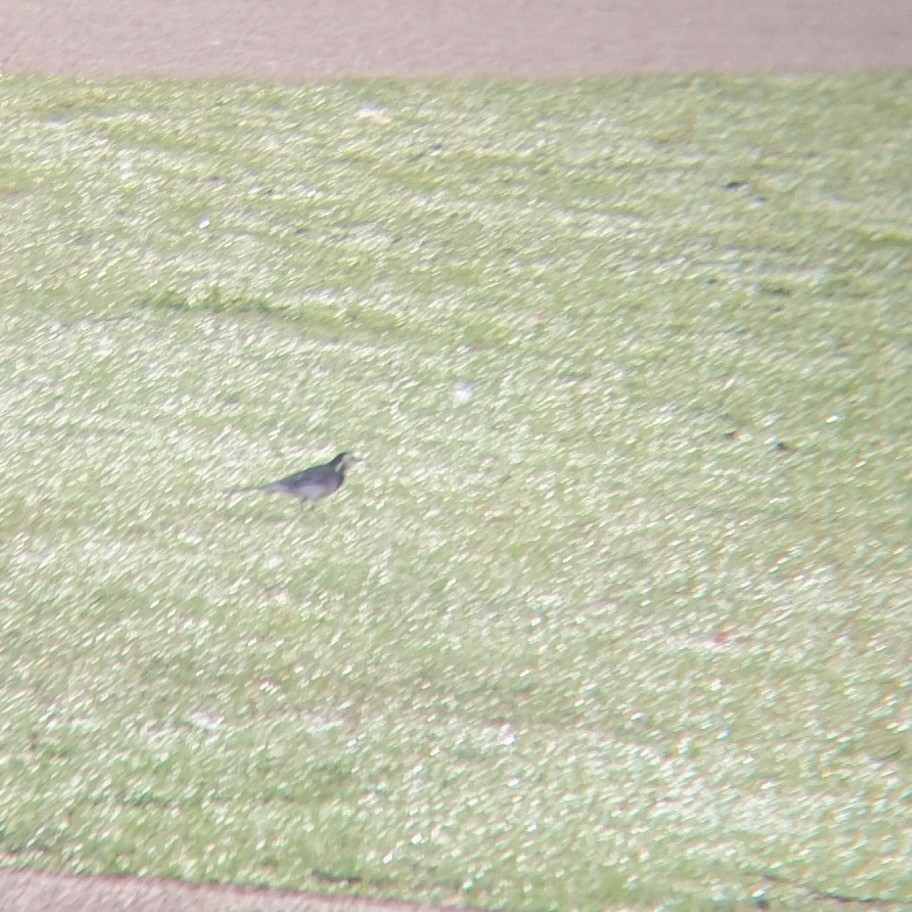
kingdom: Animalia
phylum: Chordata
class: Aves
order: Passeriformes
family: Motacillidae
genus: Motacilla
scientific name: Motacilla alba
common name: White wagtail
